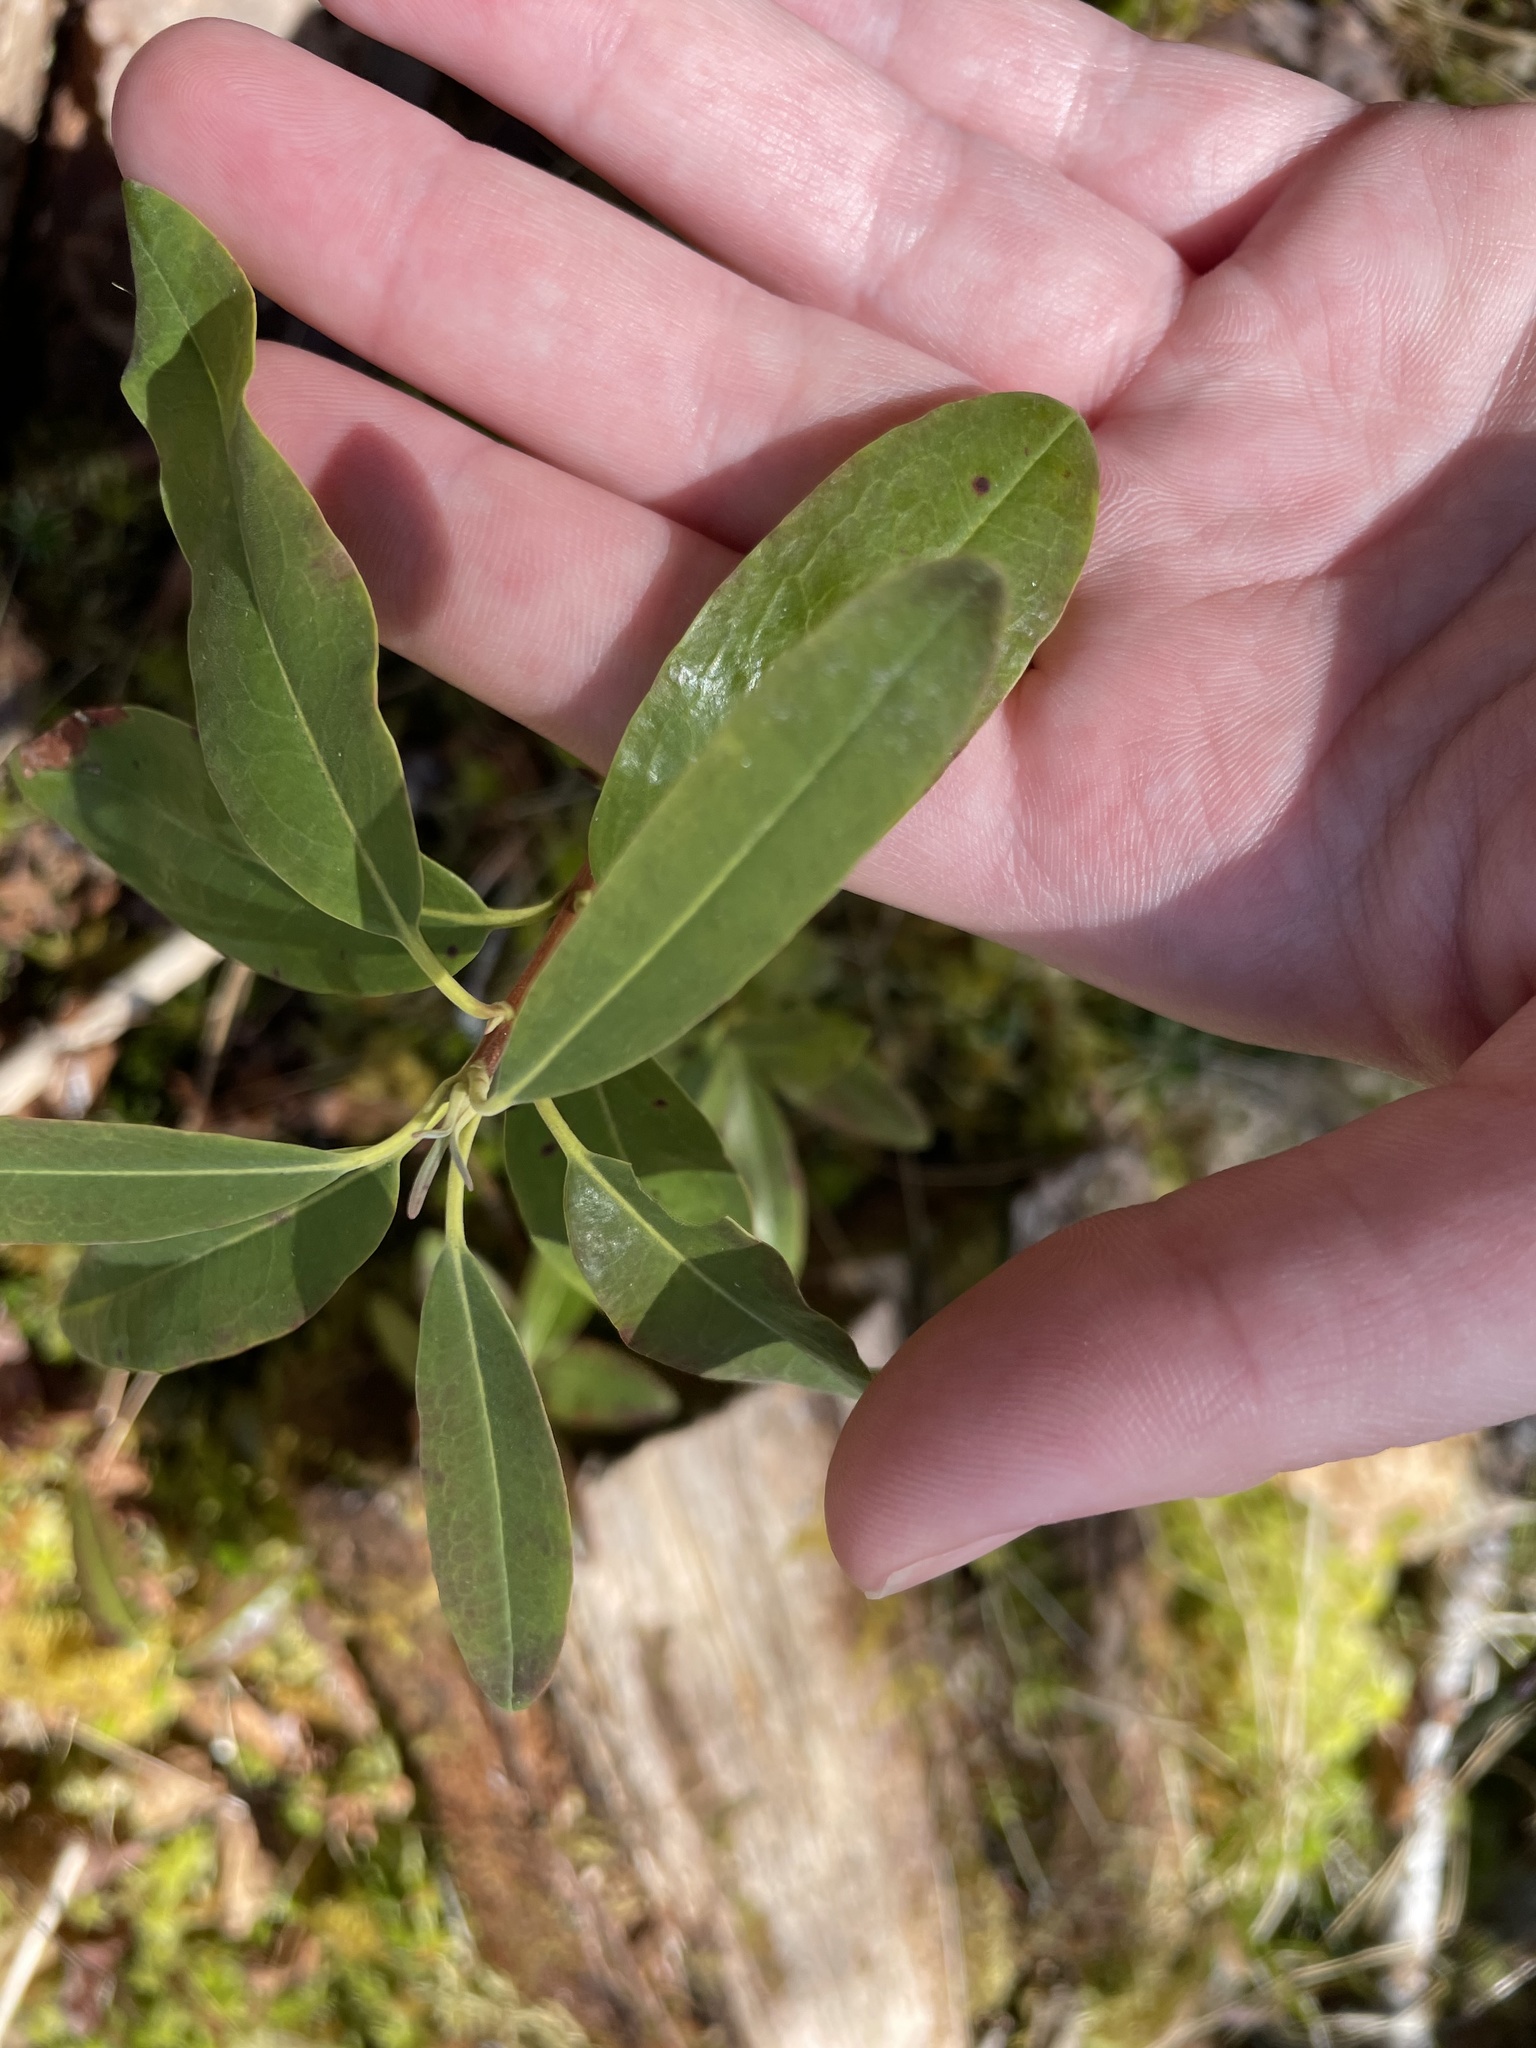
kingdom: Plantae
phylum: Tracheophyta
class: Magnoliopsida
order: Ericales
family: Ericaceae
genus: Kalmia
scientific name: Kalmia angustifolia
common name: Sheep-laurel
